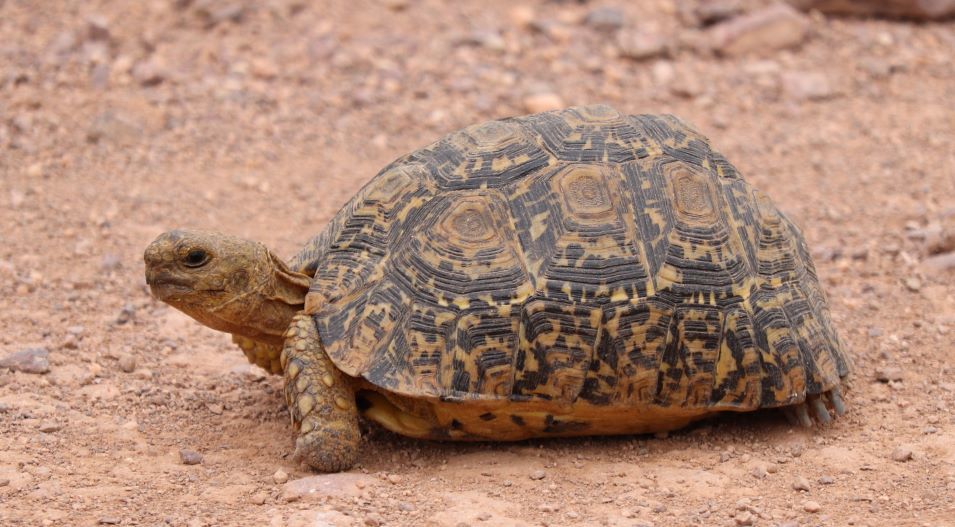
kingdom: Animalia
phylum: Chordata
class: Testudines
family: Testudinidae
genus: Stigmochelys
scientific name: Stigmochelys pardalis
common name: Leopard tortoise
